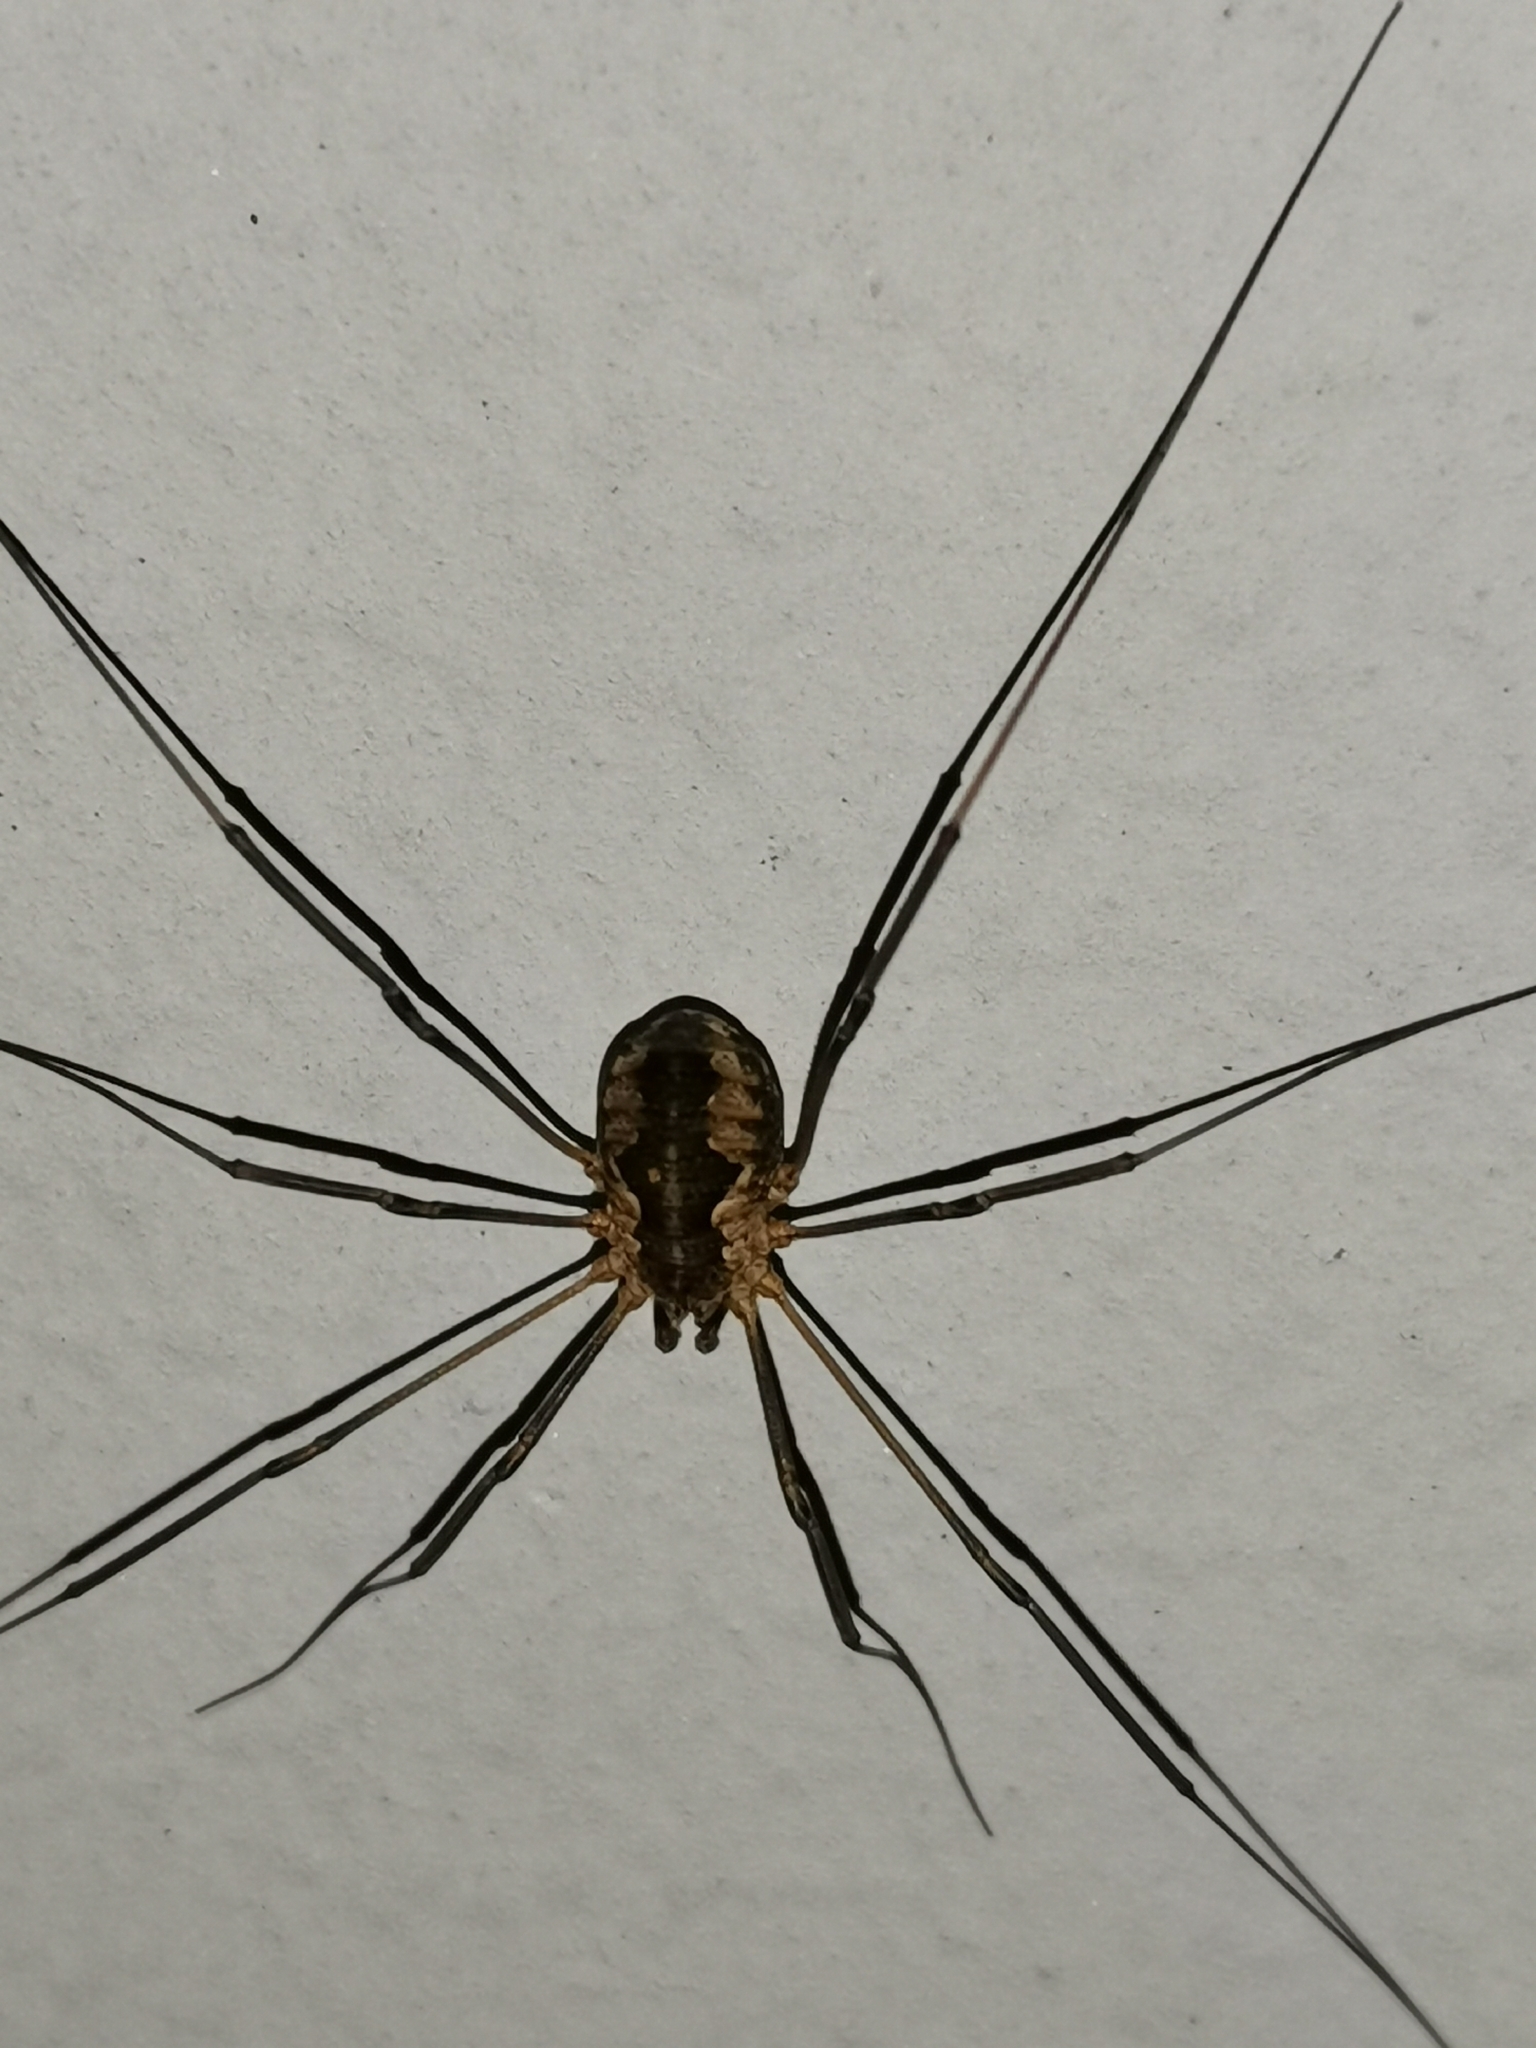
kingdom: Animalia
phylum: Arthropoda
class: Arachnida
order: Opiliones
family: Phalangiidae
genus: Phalangium
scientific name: Phalangium opilio
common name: Daddy longleg
